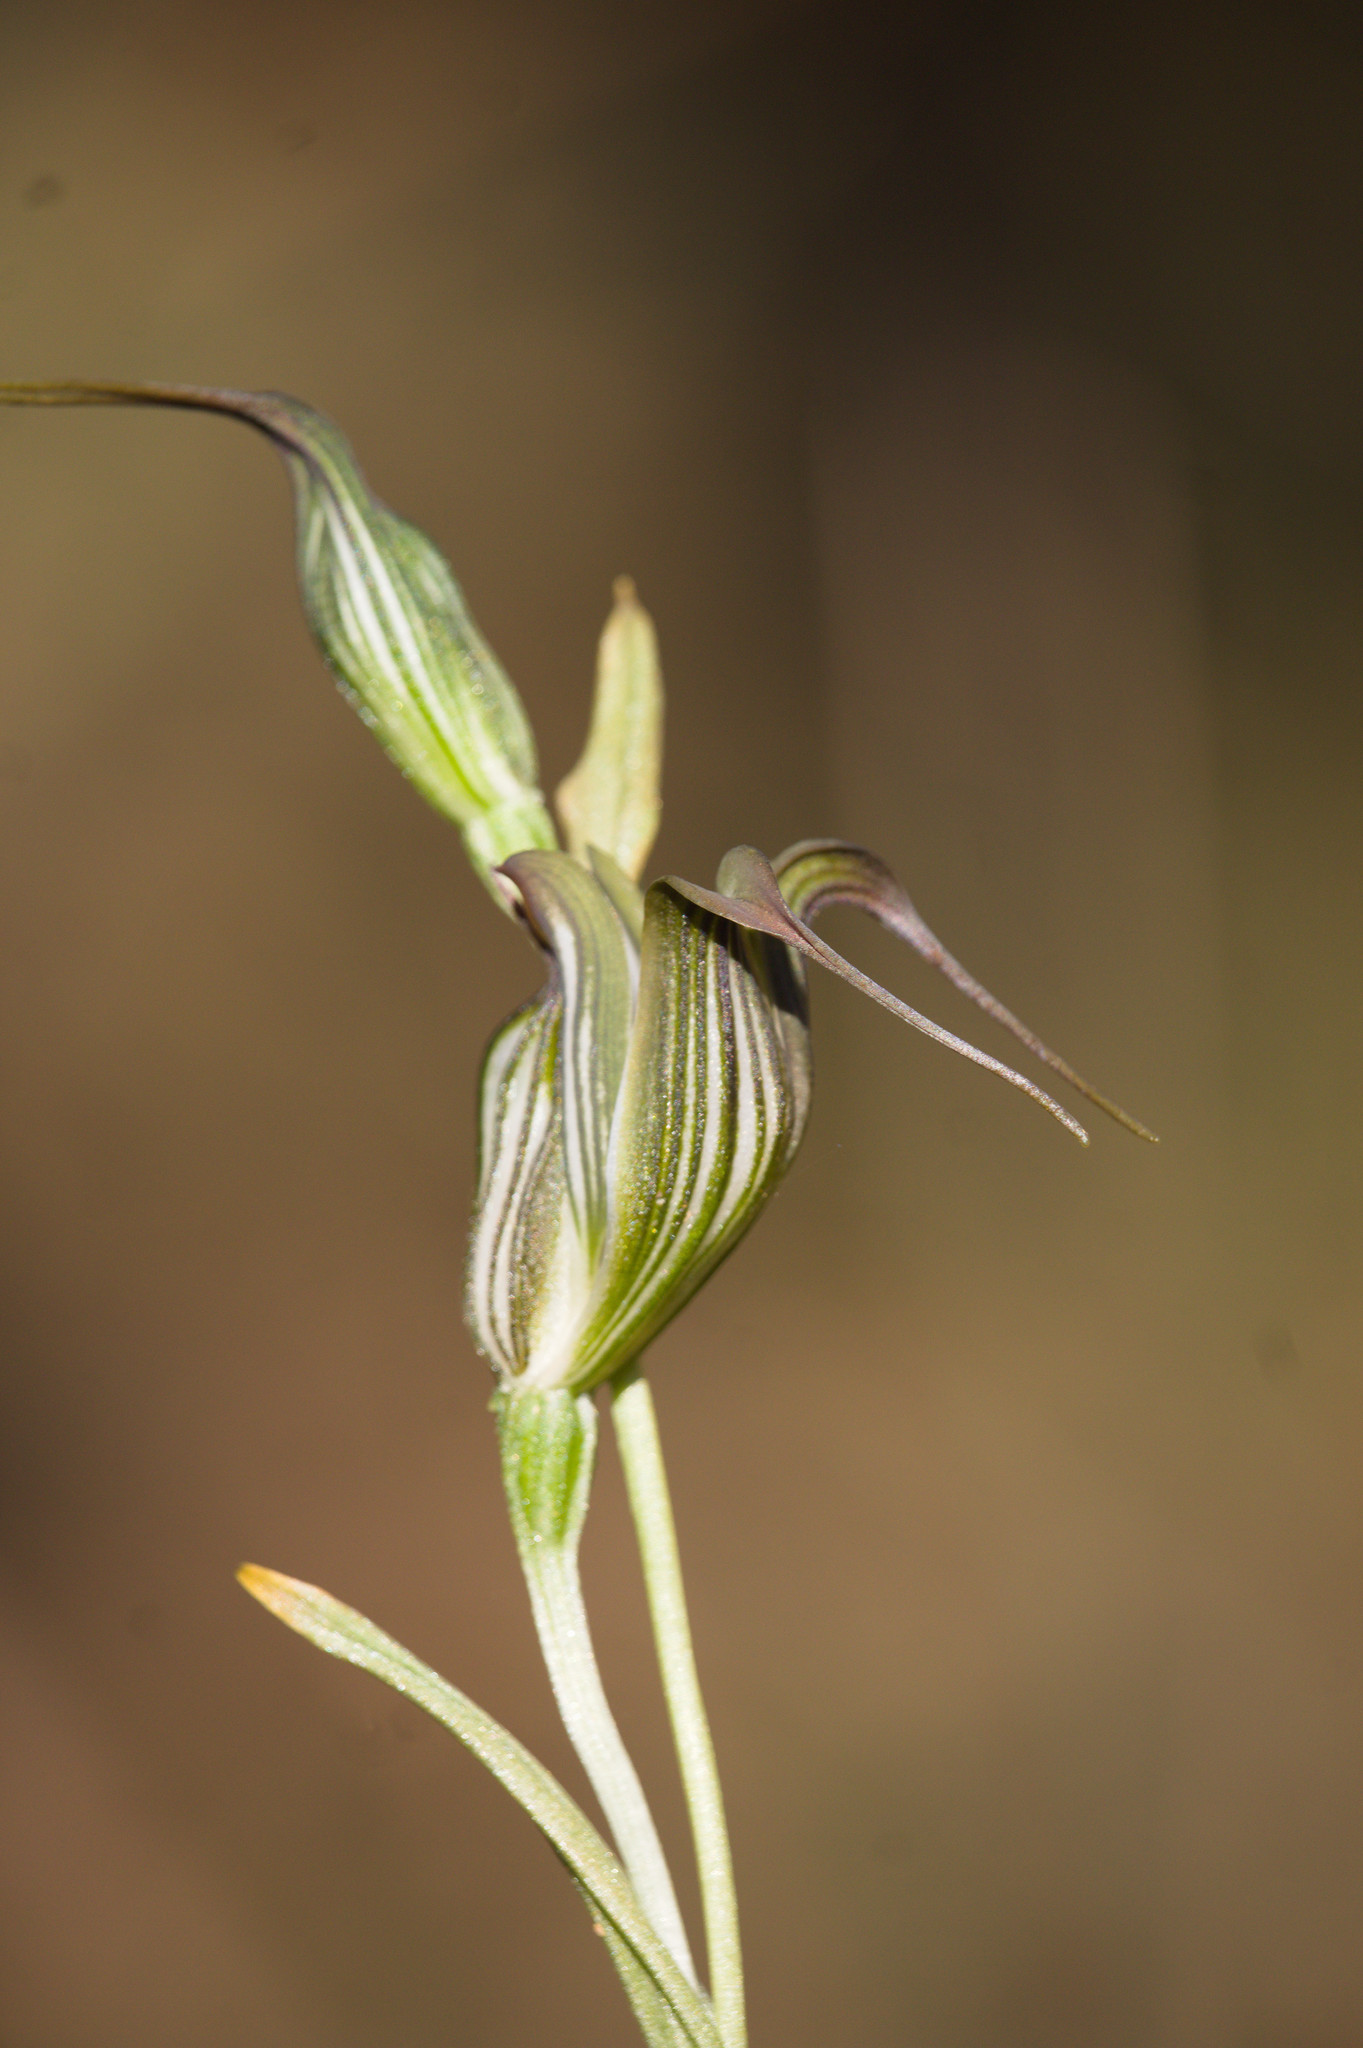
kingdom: Plantae
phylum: Tracheophyta
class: Liliopsida
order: Asparagales
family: Orchidaceae
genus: Pterostylis
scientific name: Pterostylis recurva
